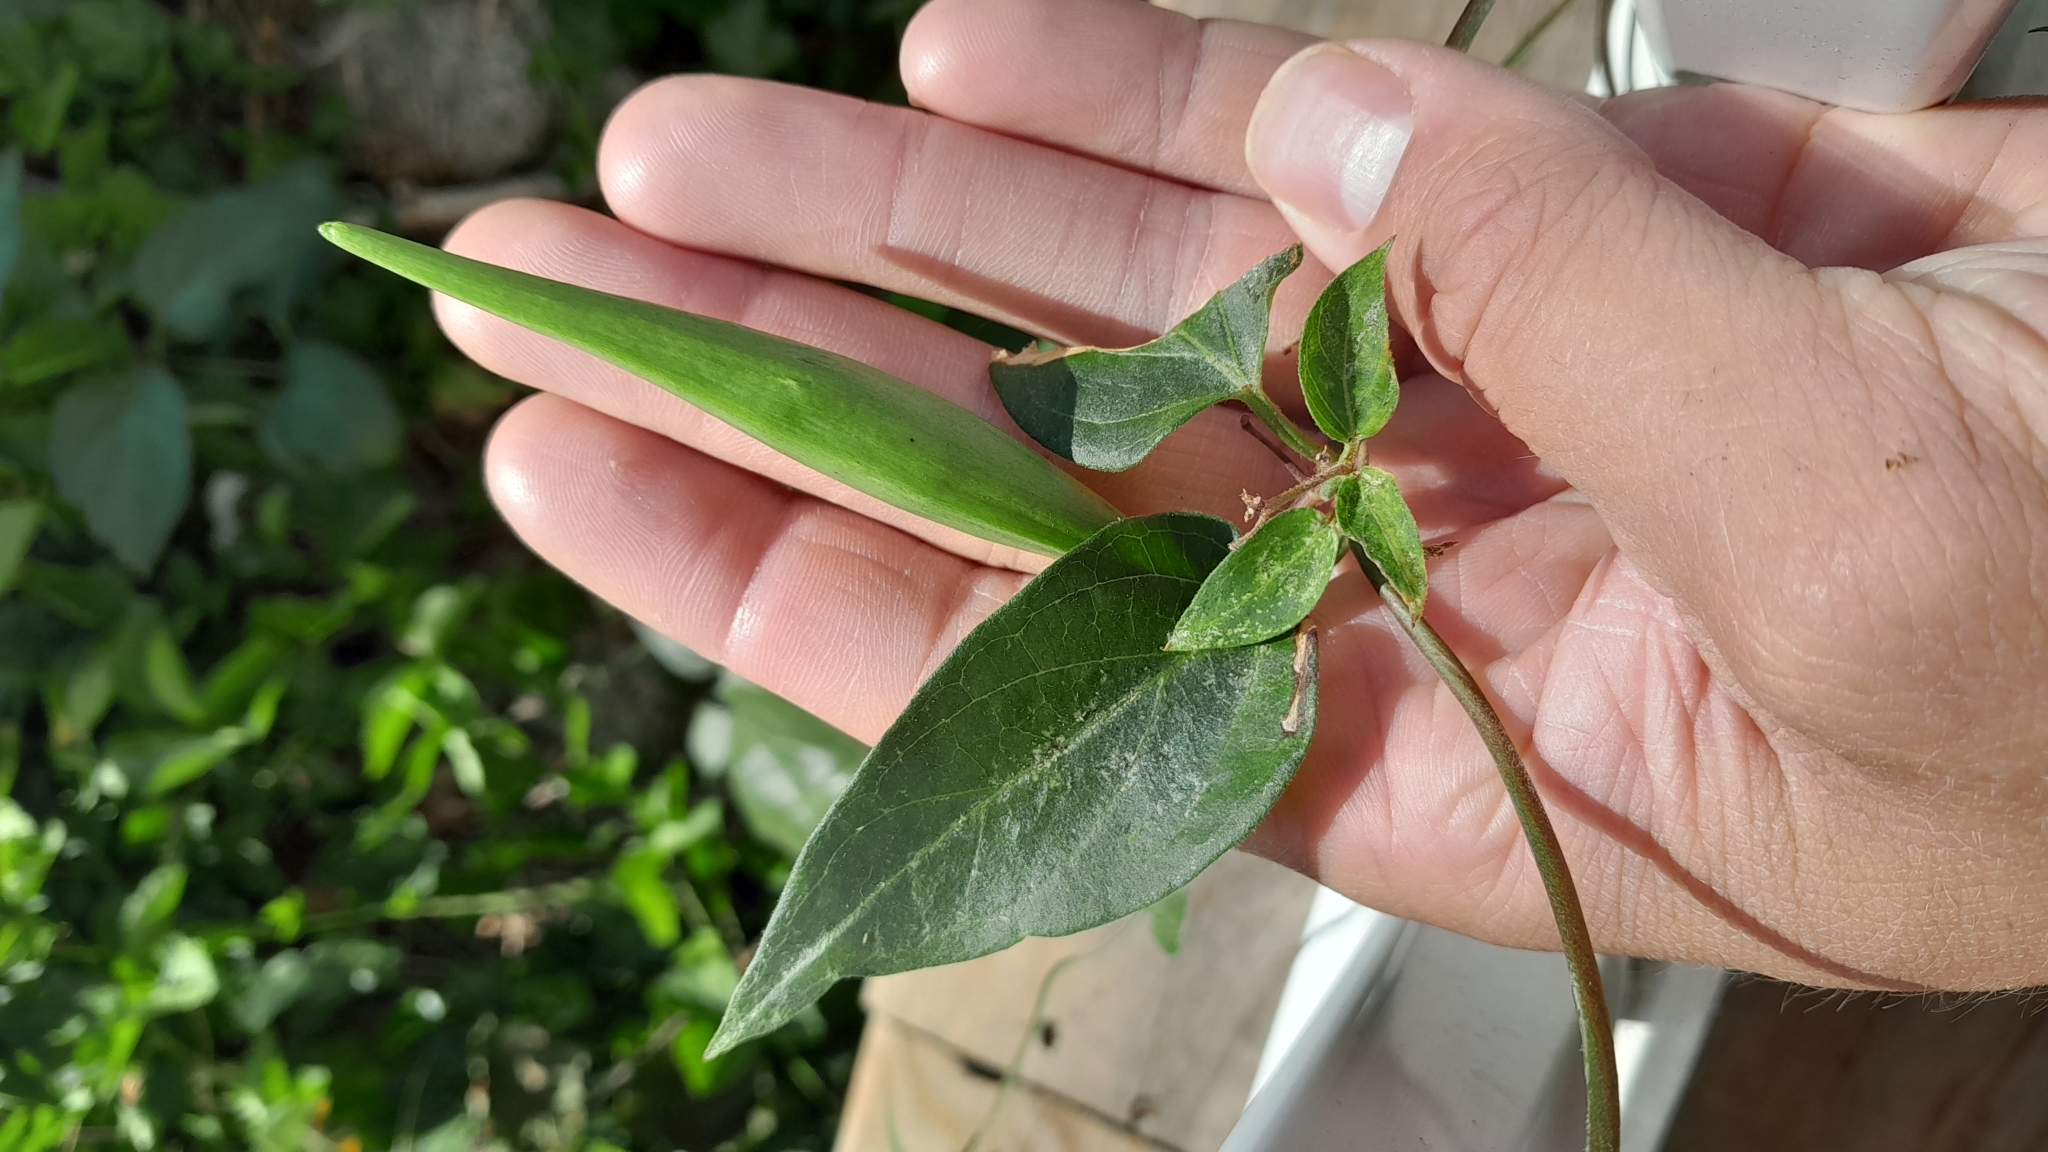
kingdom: Plantae
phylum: Tracheophyta
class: Magnoliopsida
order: Gentianales
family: Apocynaceae
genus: Vincetoxicum
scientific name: Vincetoxicum nigrum
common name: Black swallow-wort
